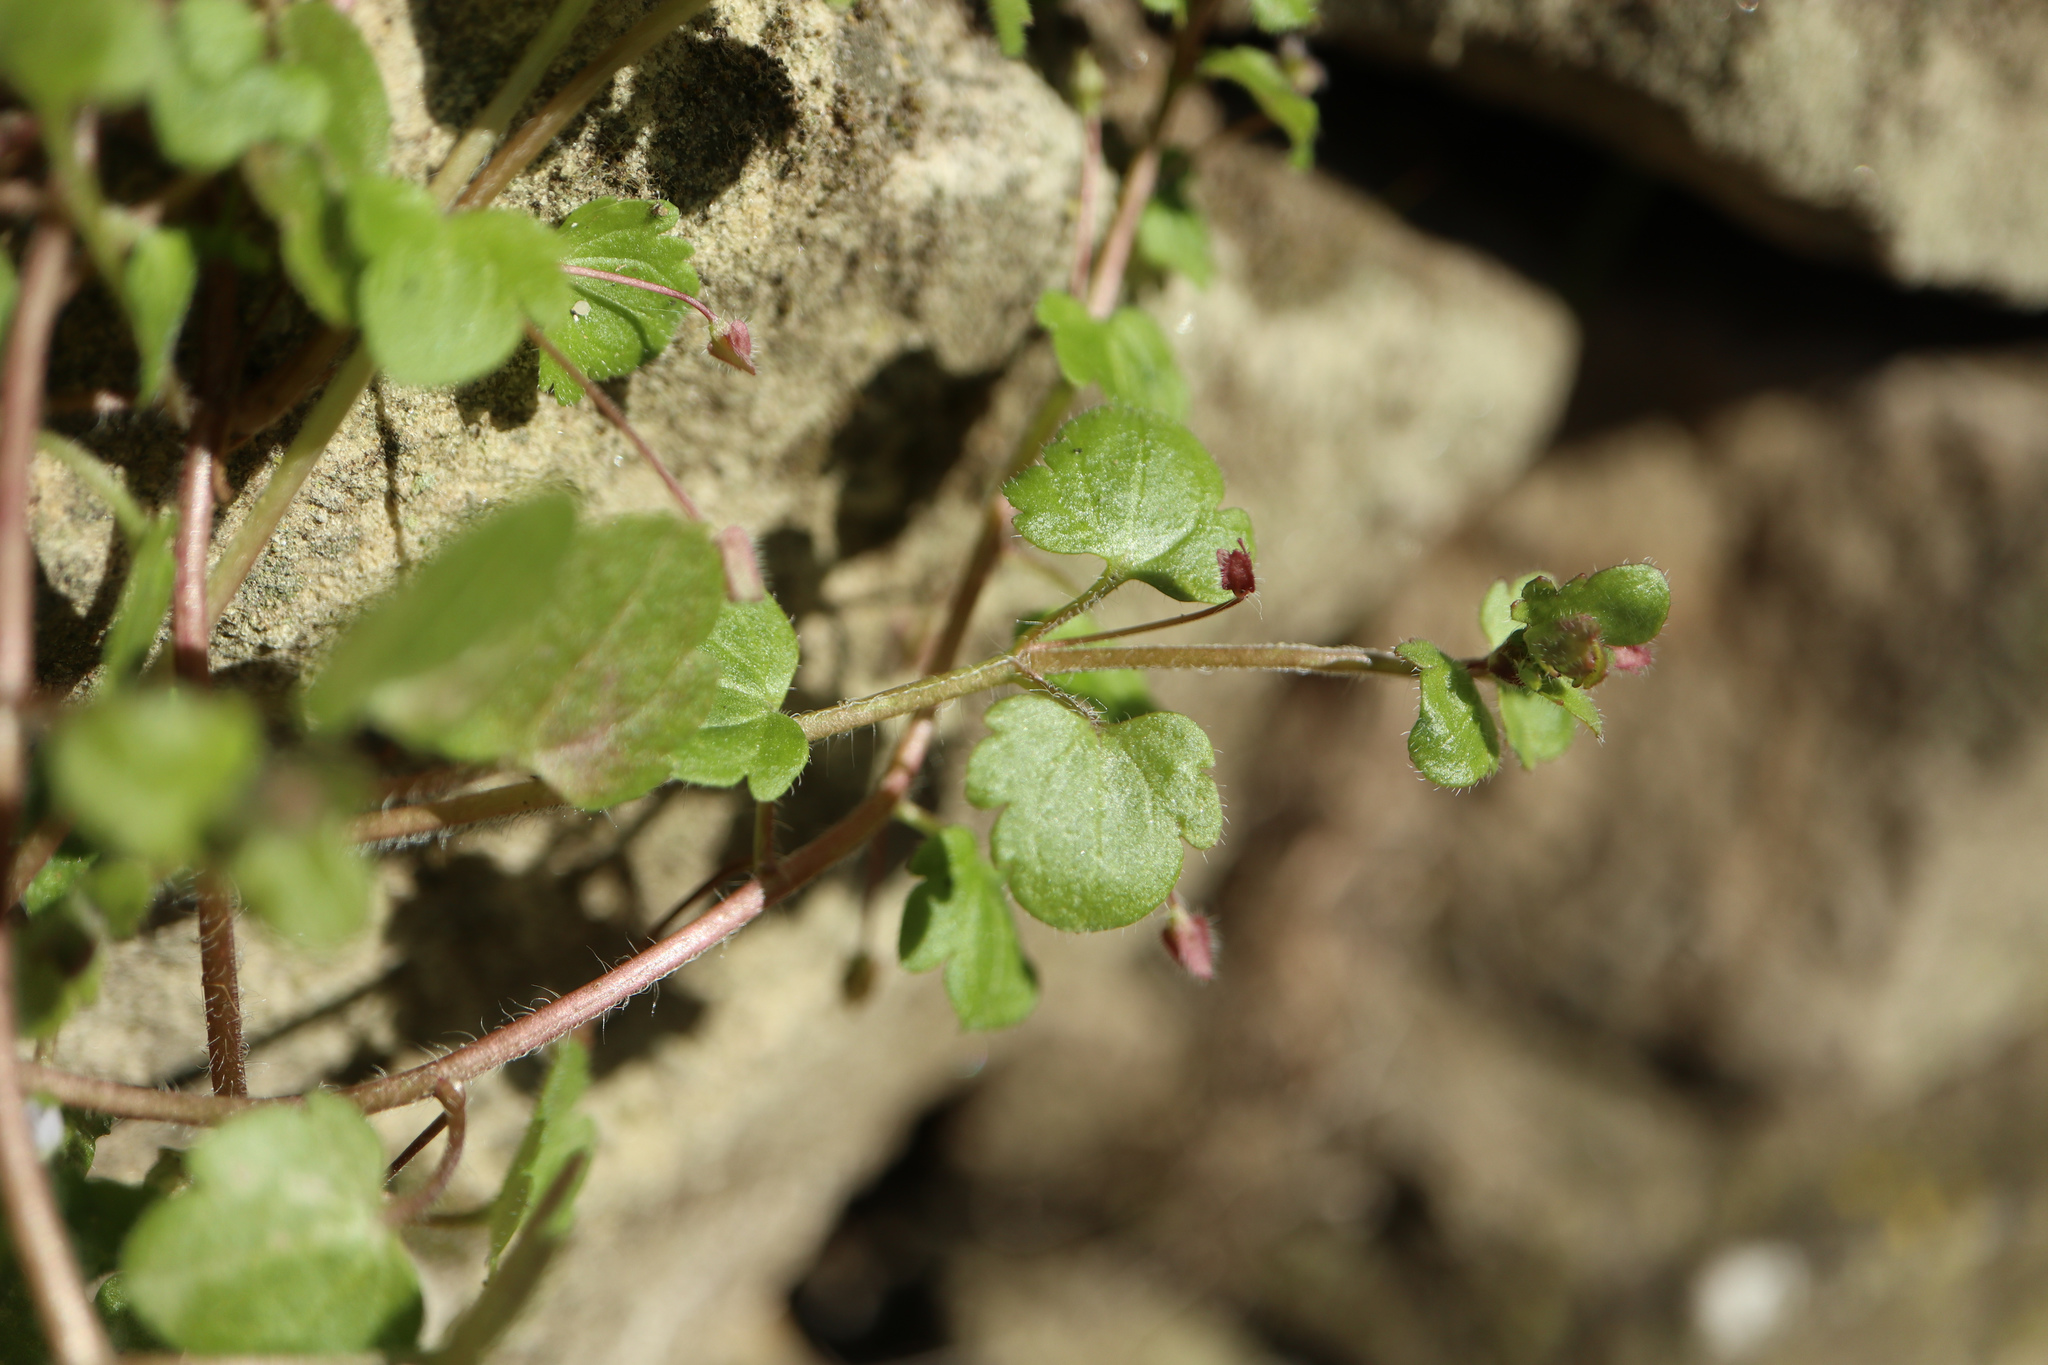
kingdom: Plantae
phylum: Tracheophyta
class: Magnoliopsida
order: Lamiales
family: Plantaginaceae
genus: Veronica
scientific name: Veronica hederifolia
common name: Ivy-leaved speedwell
